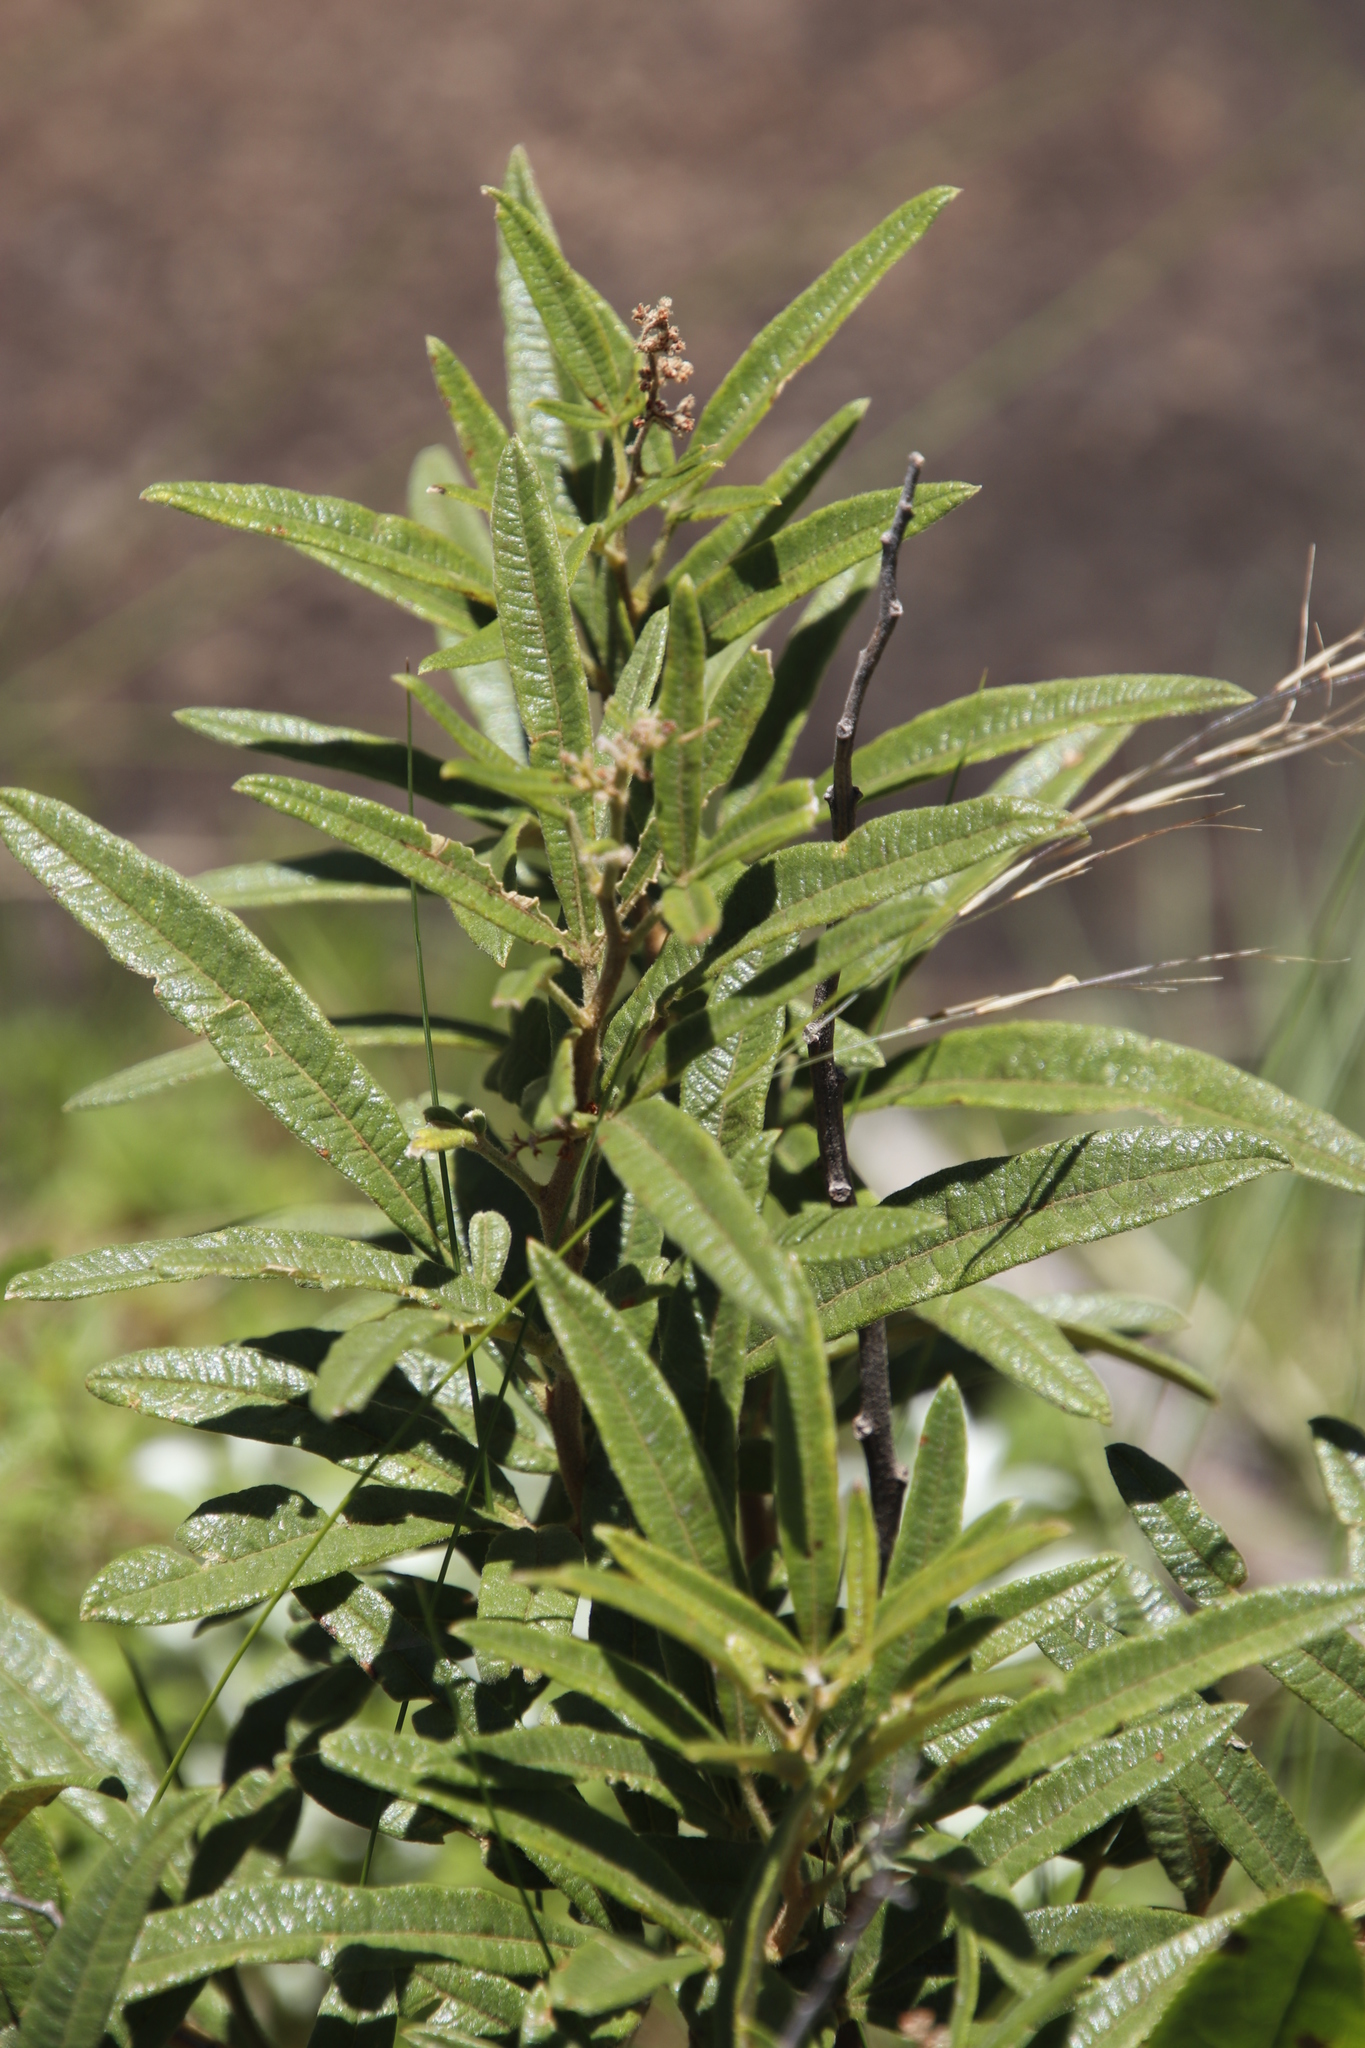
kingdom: Plantae
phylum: Tracheophyta
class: Magnoliopsida
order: Sapindales
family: Anacardiaceae
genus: Searsia
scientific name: Searsia discolor
